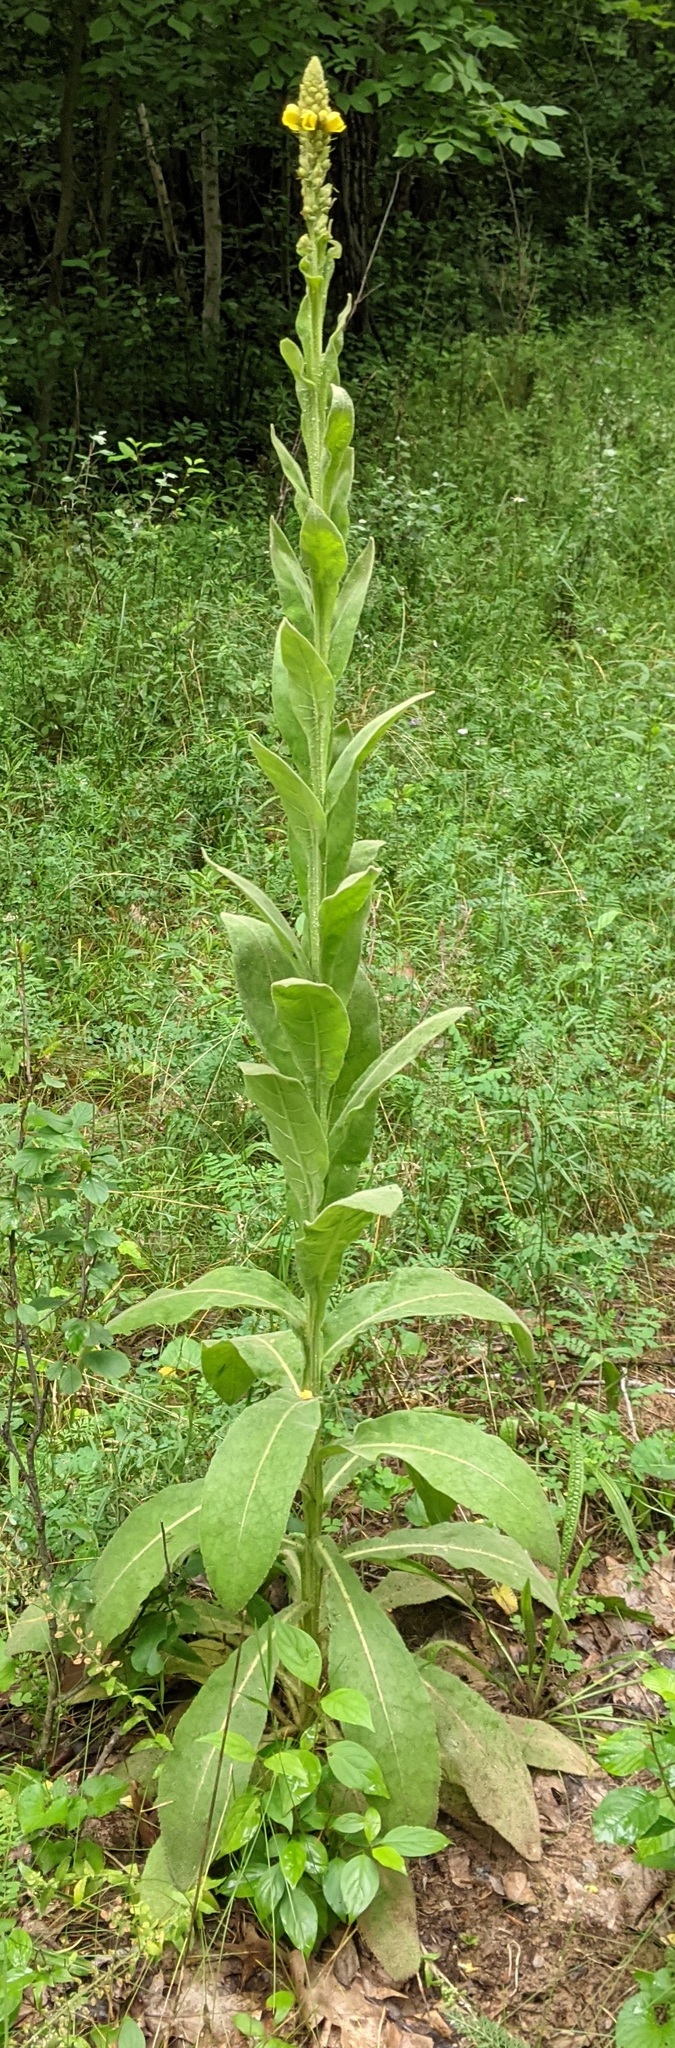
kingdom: Plantae
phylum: Tracheophyta
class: Magnoliopsida
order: Lamiales
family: Scrophulariaceae
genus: Verbascum
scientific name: Verbascum thapsus
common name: Common mullein
